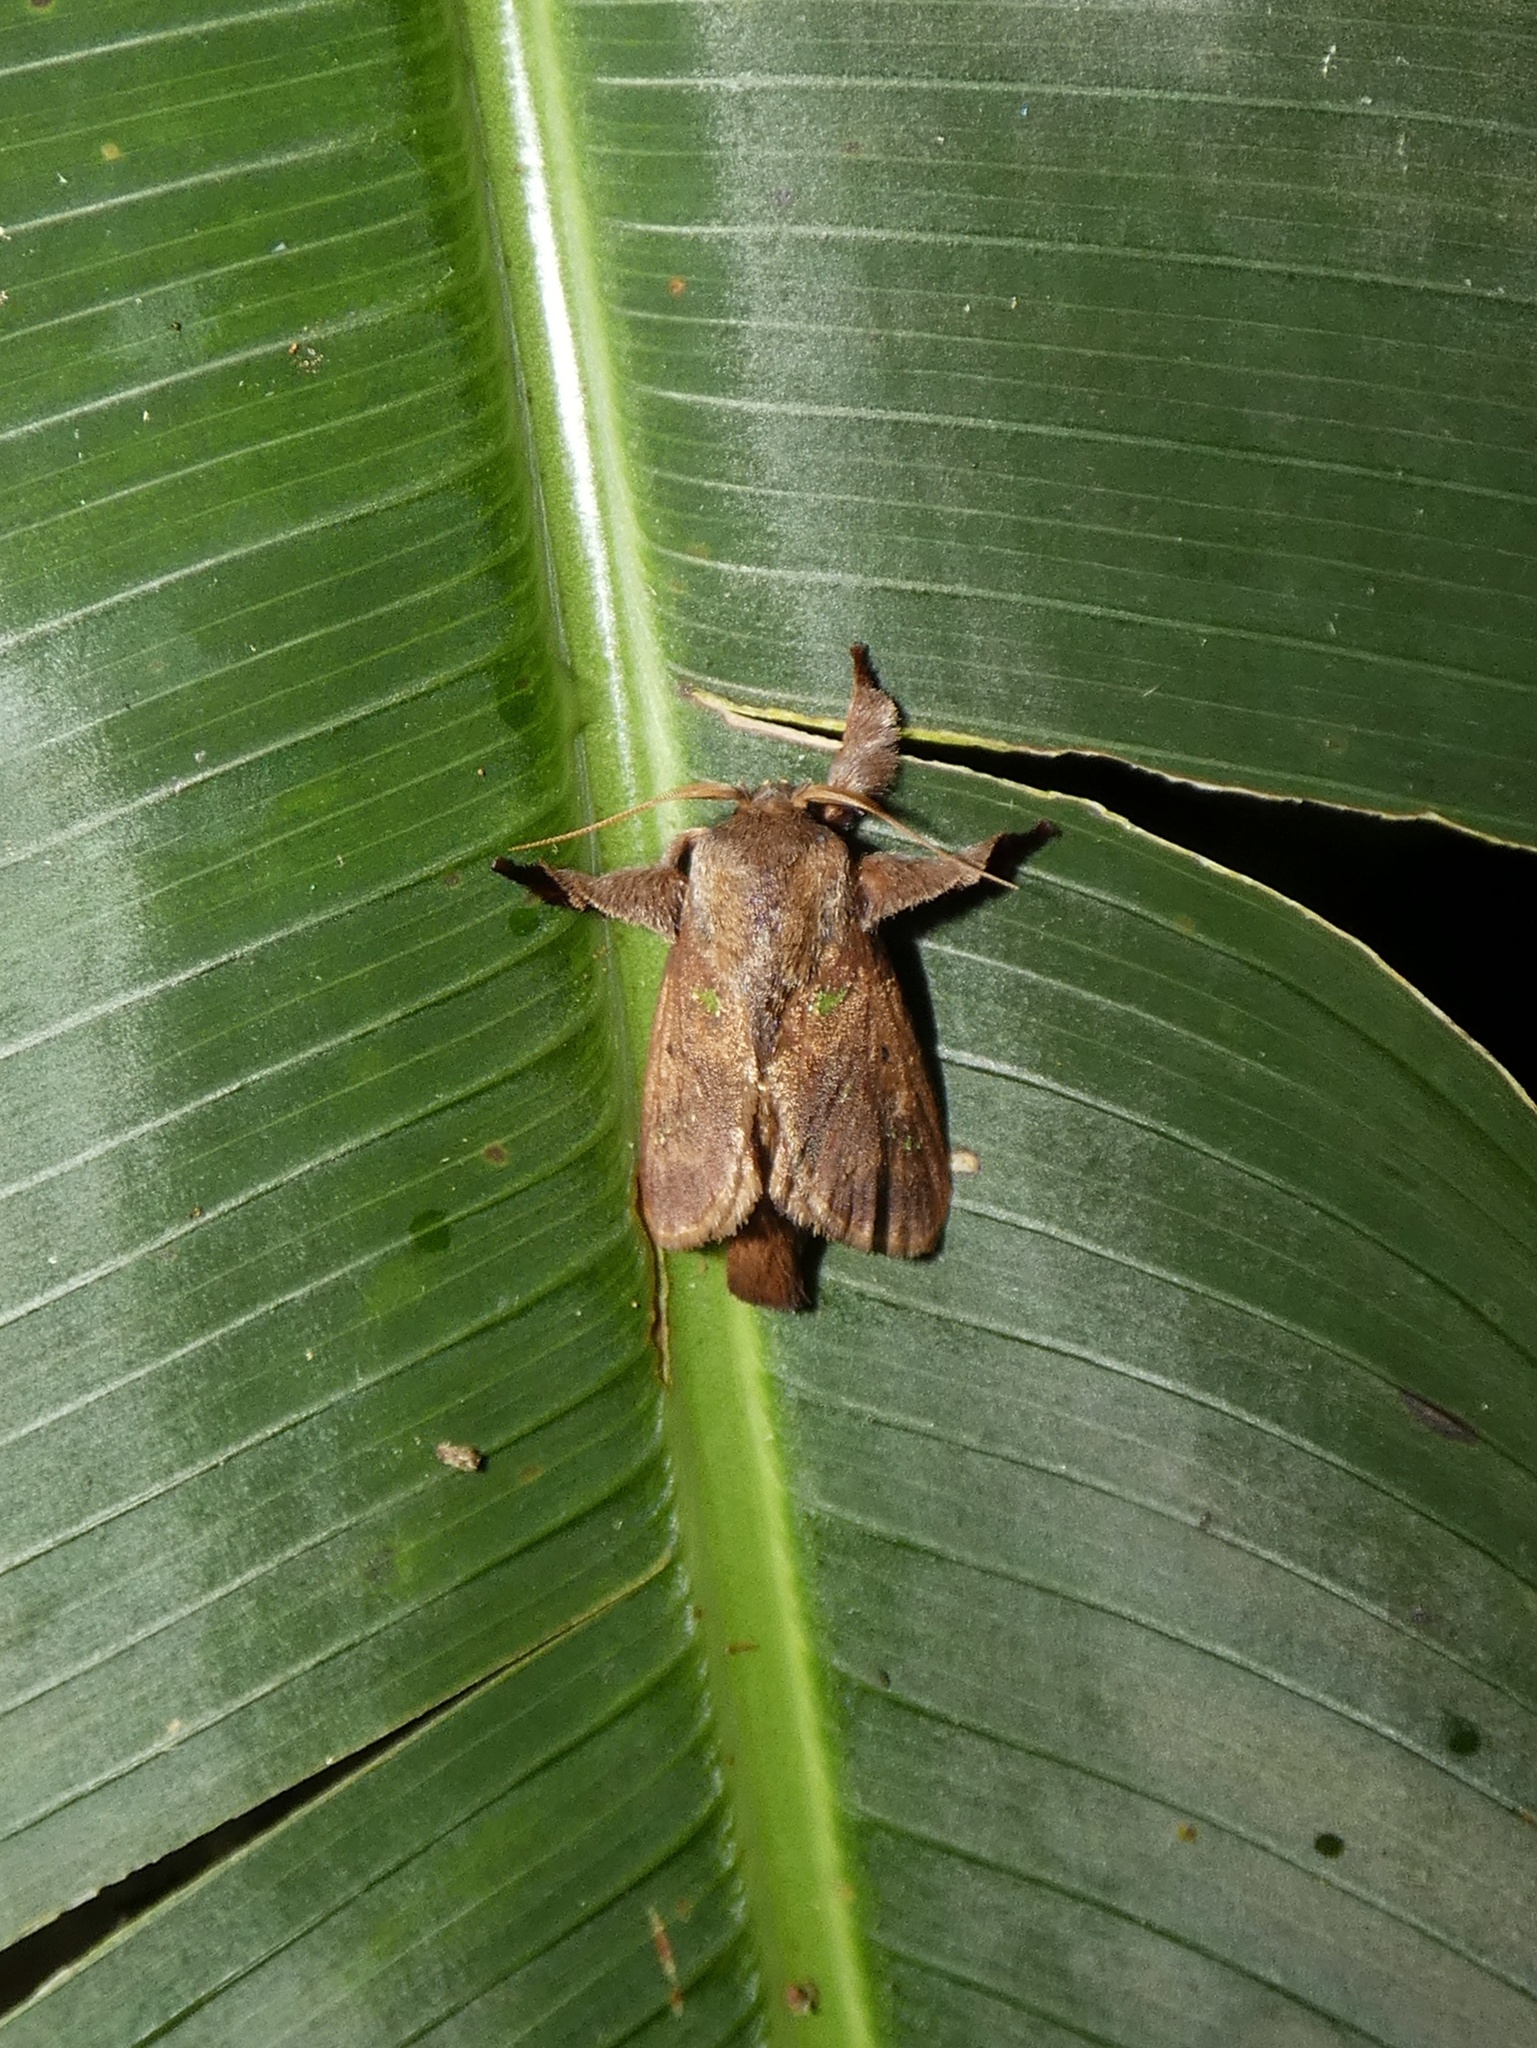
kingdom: Animalia
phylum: Arthropoda
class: Insecta
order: Lepidoptera
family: Limacodidae
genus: Euclea
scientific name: Euclea norba
